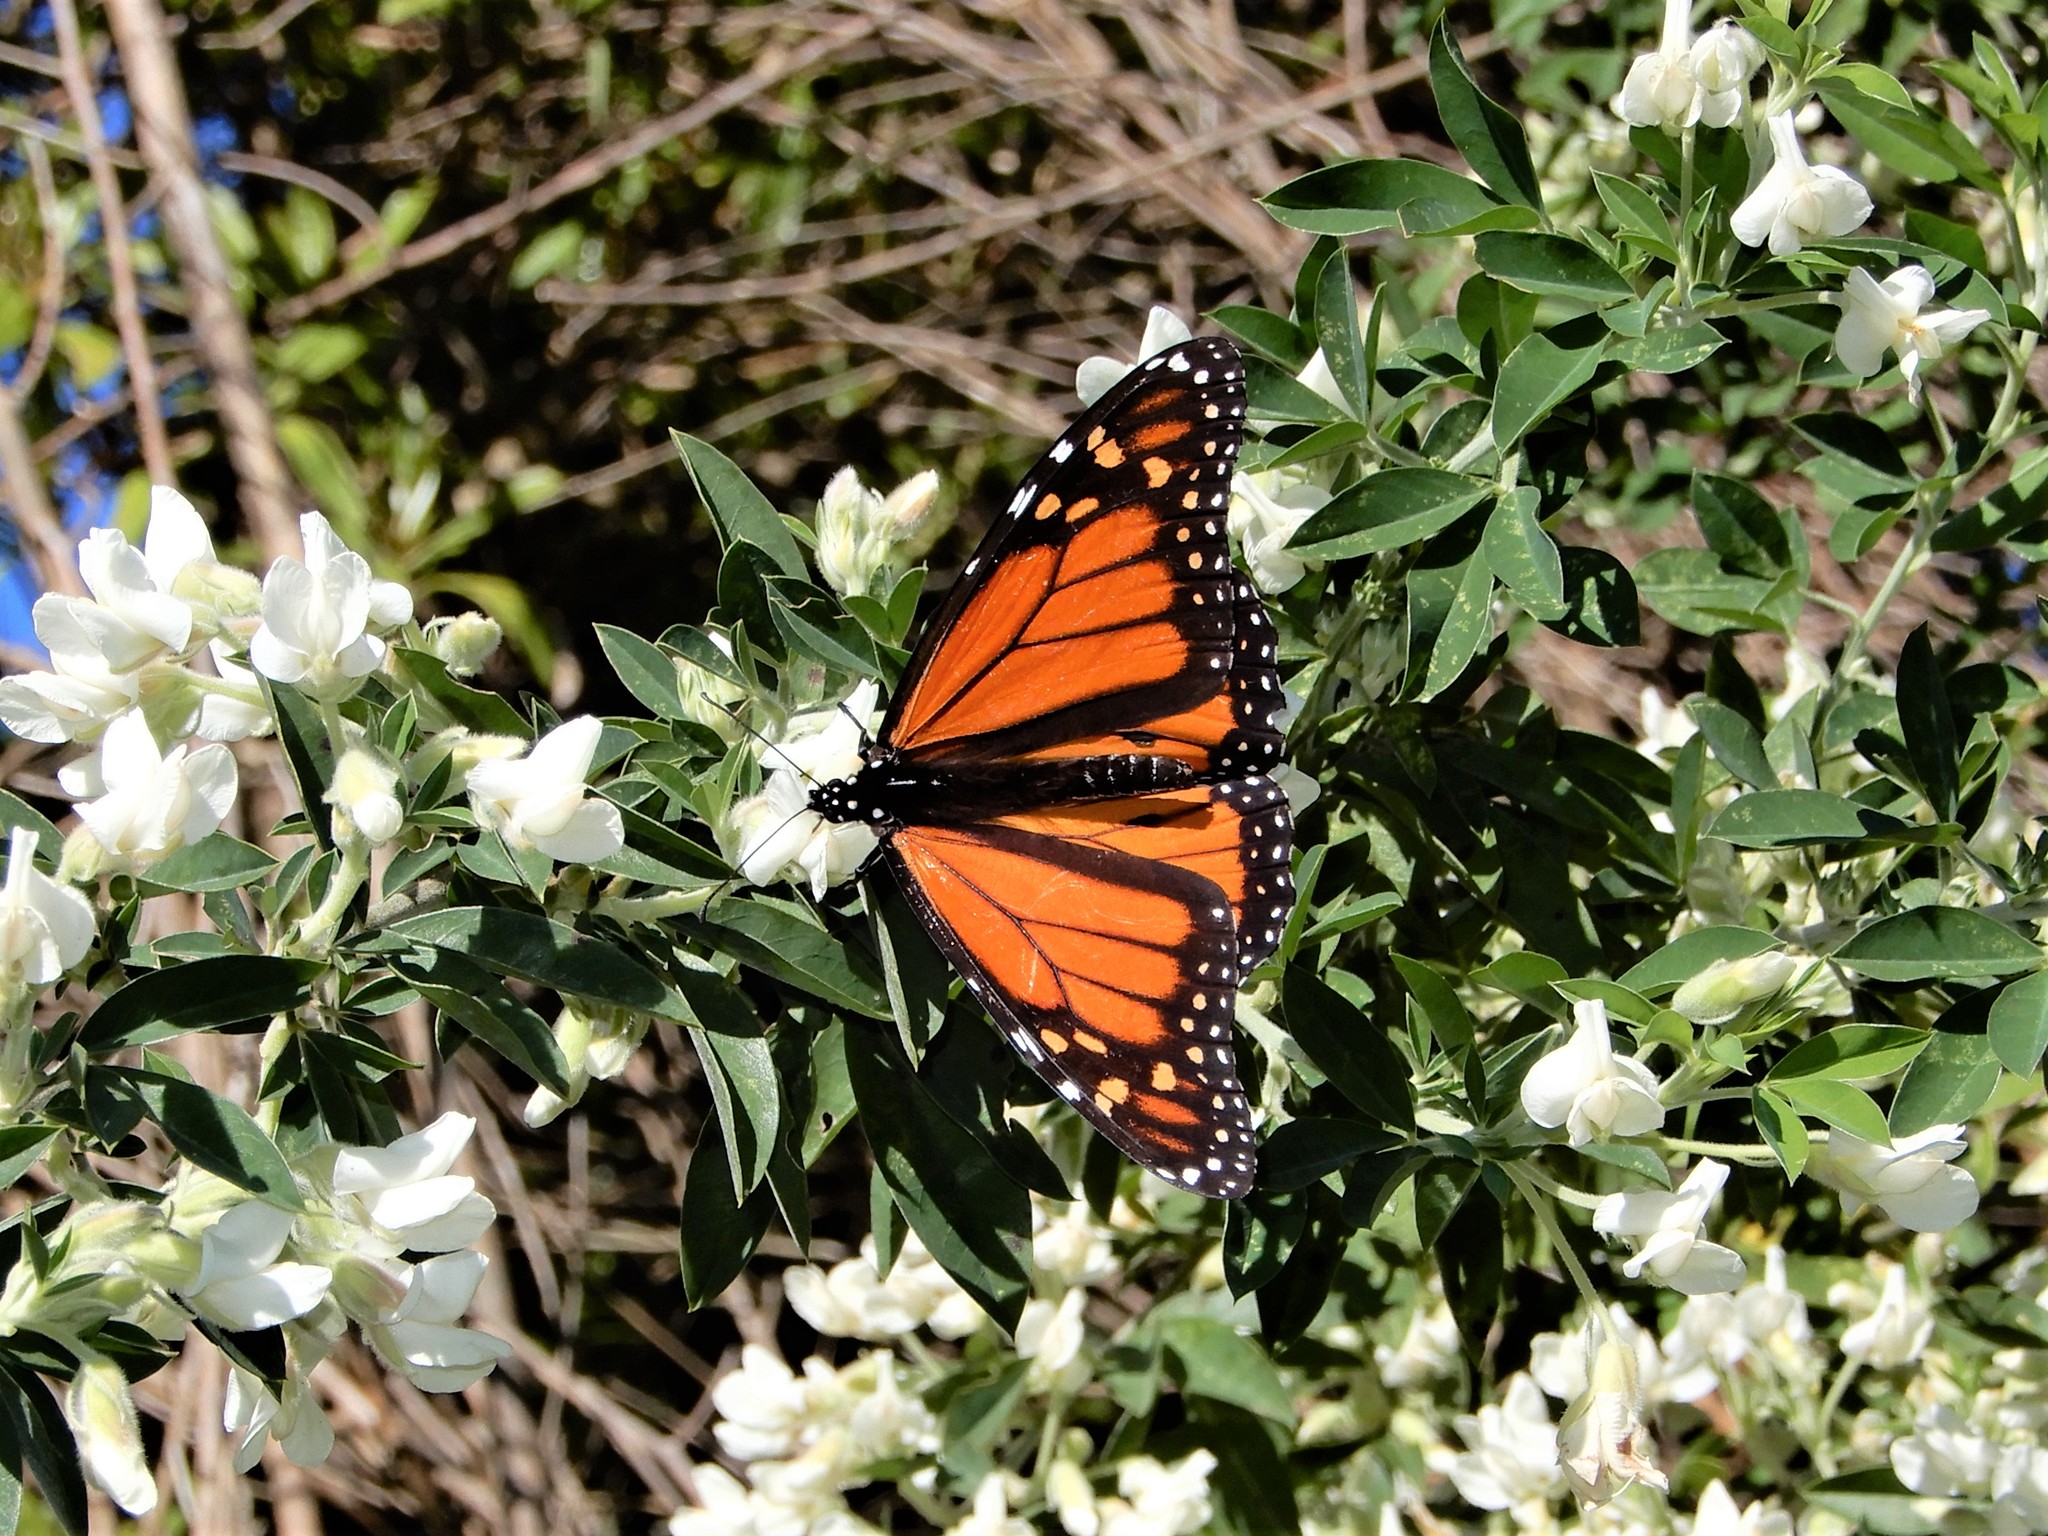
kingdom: Animalia
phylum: Arthropoda
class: Insecta
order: Lepidoptera
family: Nymphalidae
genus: Danaus
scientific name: Danaus plexippus
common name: Monarch
